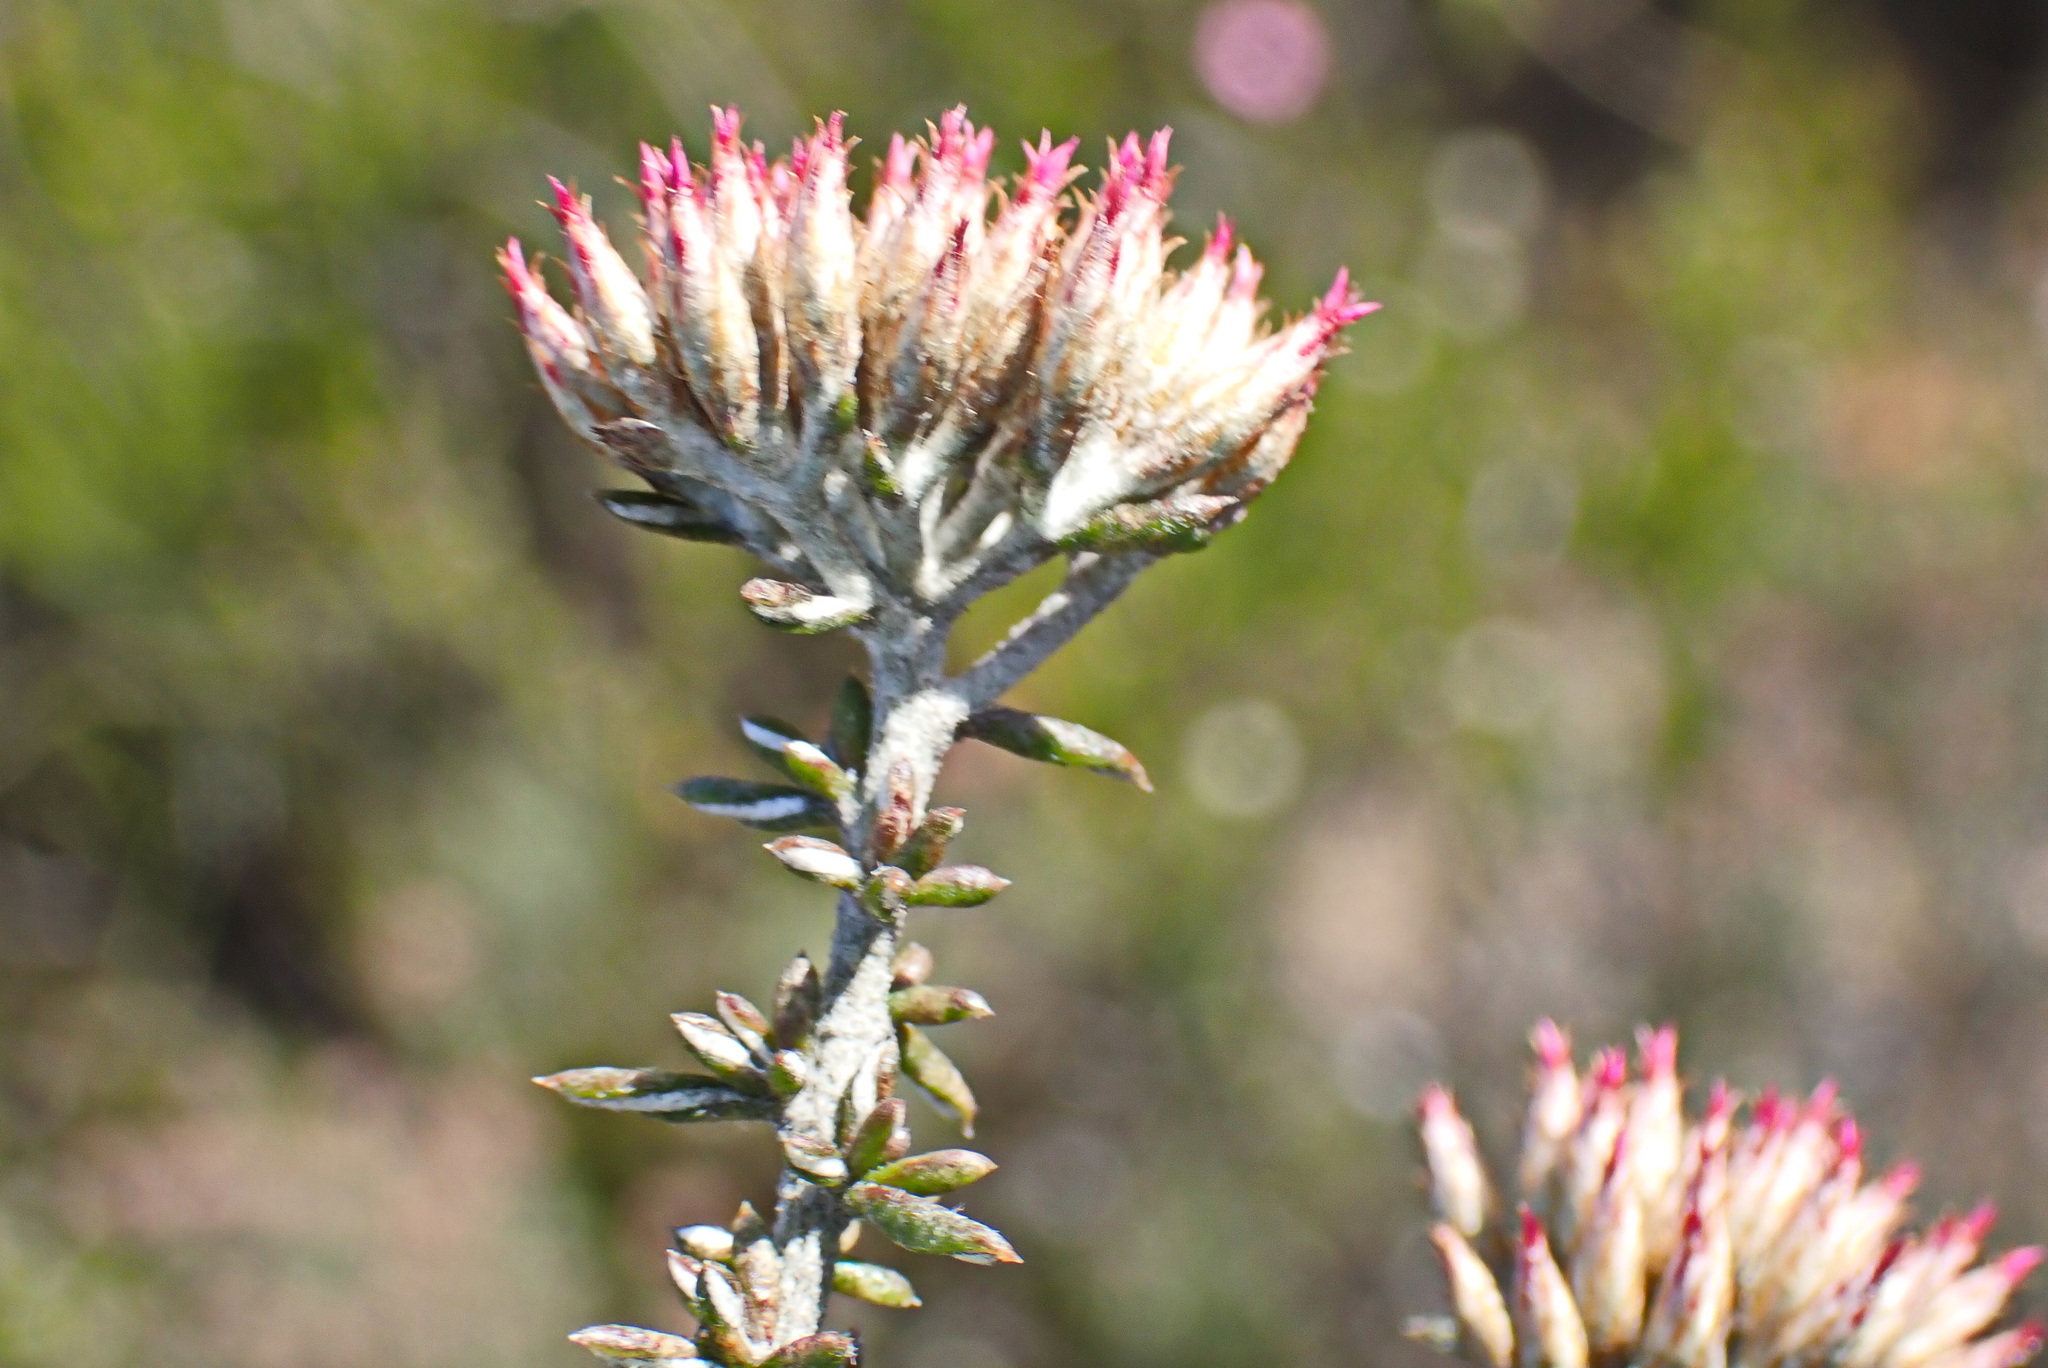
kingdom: Plantae
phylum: Tracheophyta
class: Magnoliopsida
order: Asterales
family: Asteraceae
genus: Metalasia
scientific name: Metalasia massonii
